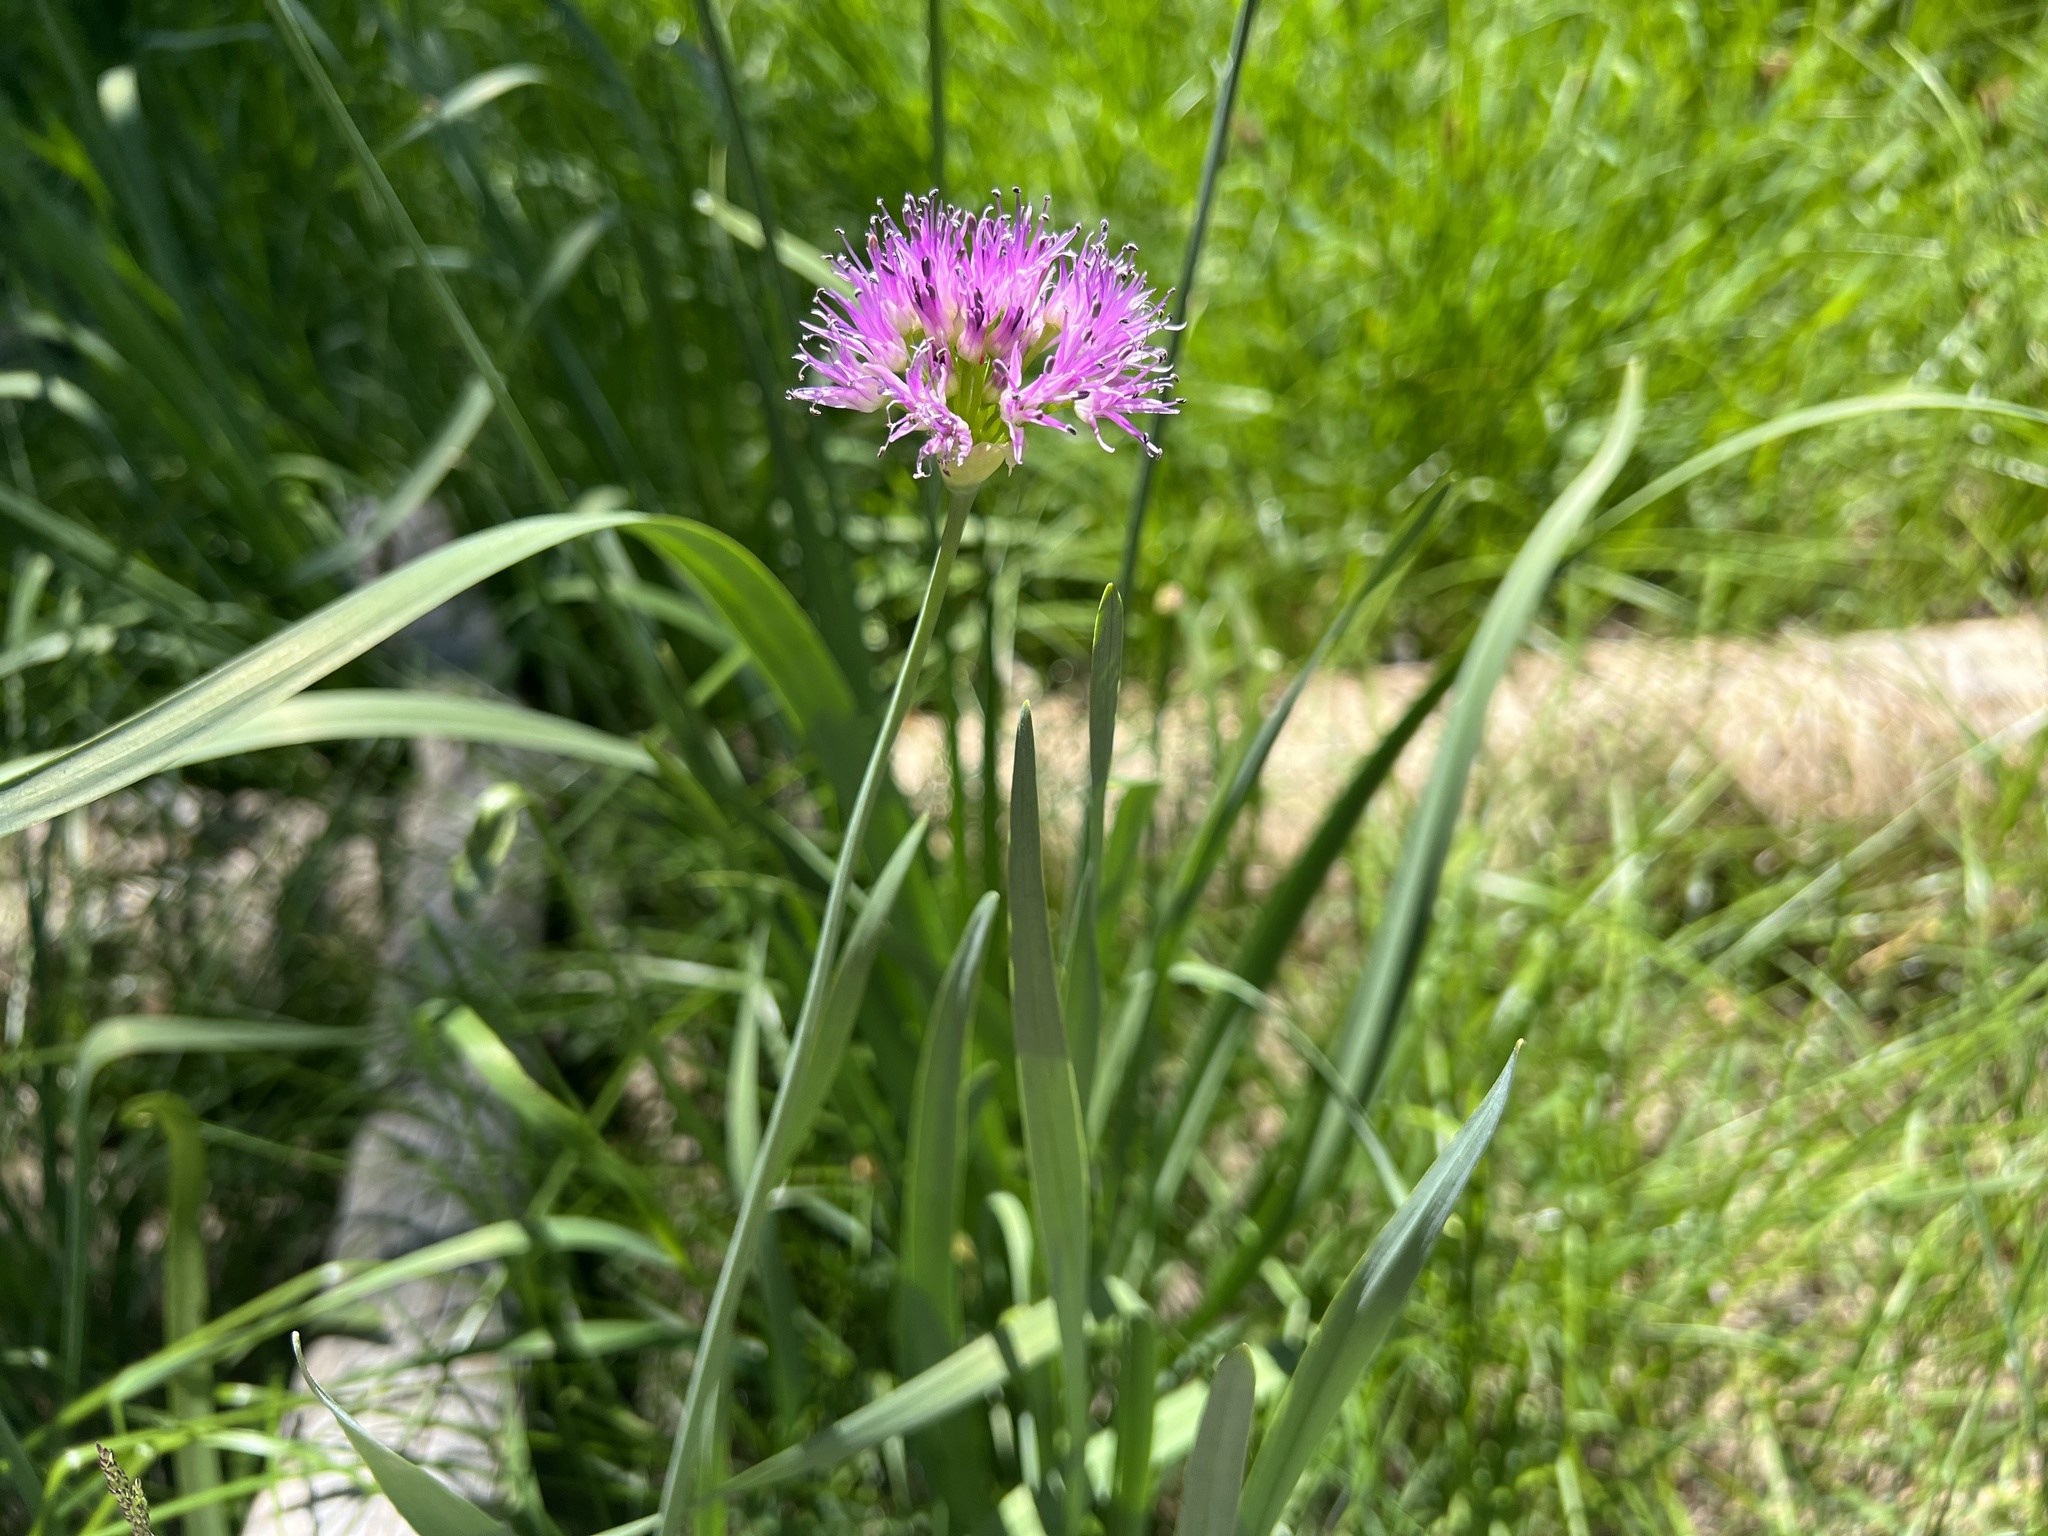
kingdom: Plantae
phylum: Tracheophyta
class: Liliopsida
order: Asparagales
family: Amaryllidaceae
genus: Allium
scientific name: Allium validum
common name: Pacific mountain onion
